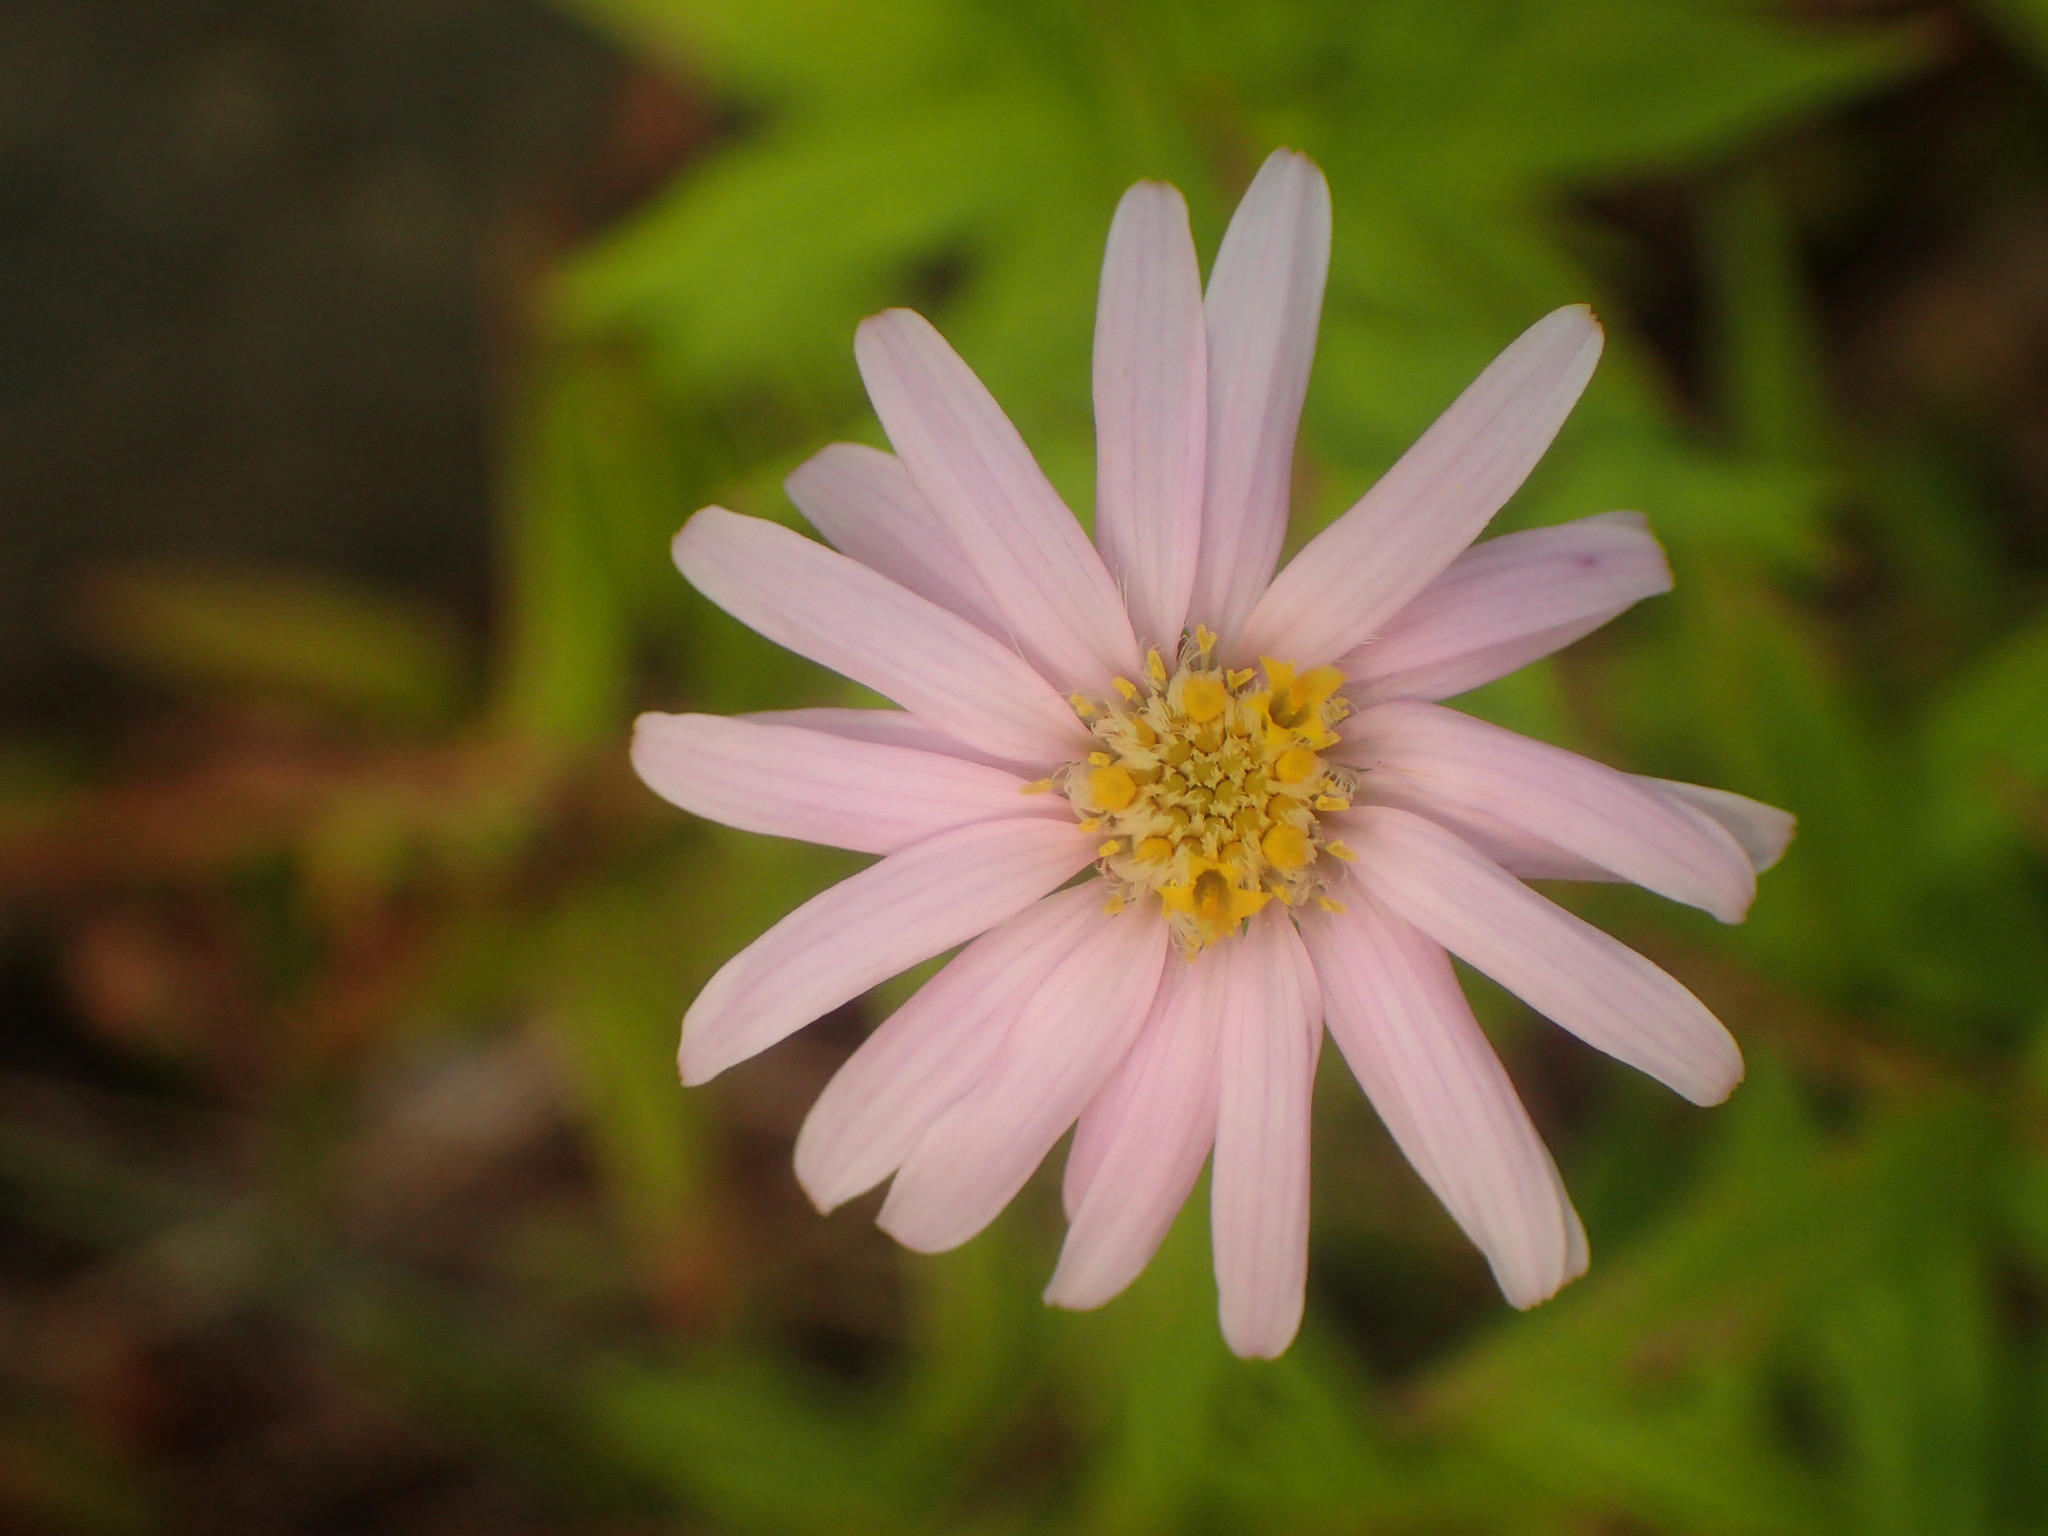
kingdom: Plantae
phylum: Tracheophyta
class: Magnoliopsida
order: Asterales
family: Asteraceae
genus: Oclemena
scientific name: Oclemena nemoralis
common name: Bog aster
